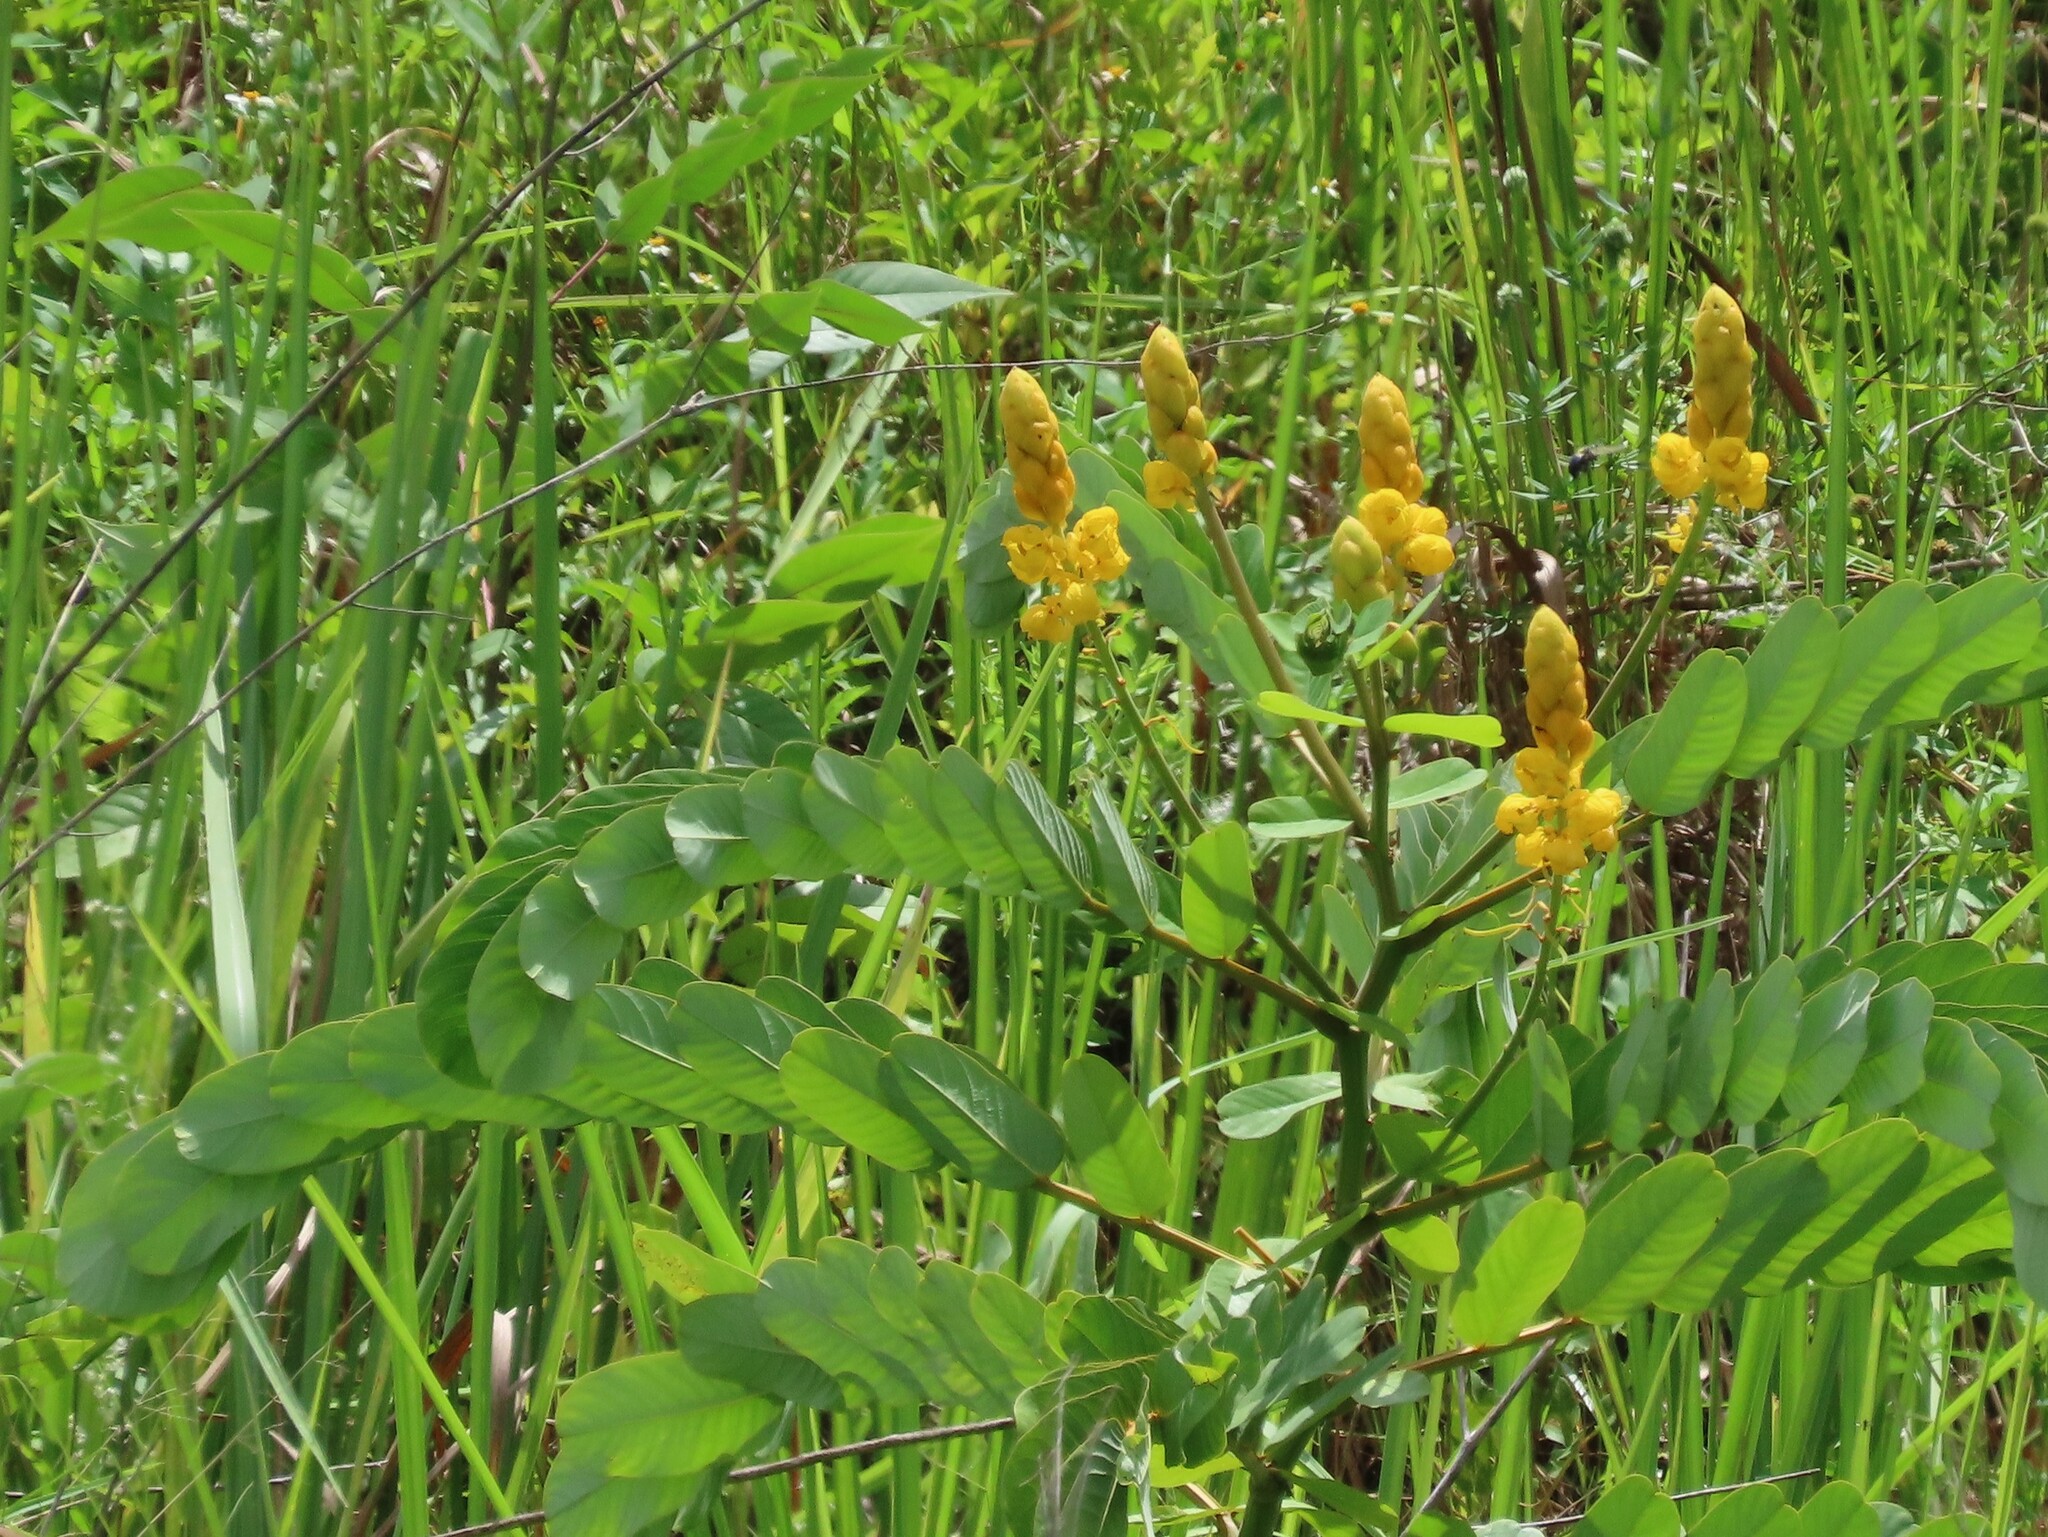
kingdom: Plantae
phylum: Tracheophyta
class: Magnoliopsida
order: Fabales
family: Fabaceae
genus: Senna
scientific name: Senna alata
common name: Emperor's candlesticks
